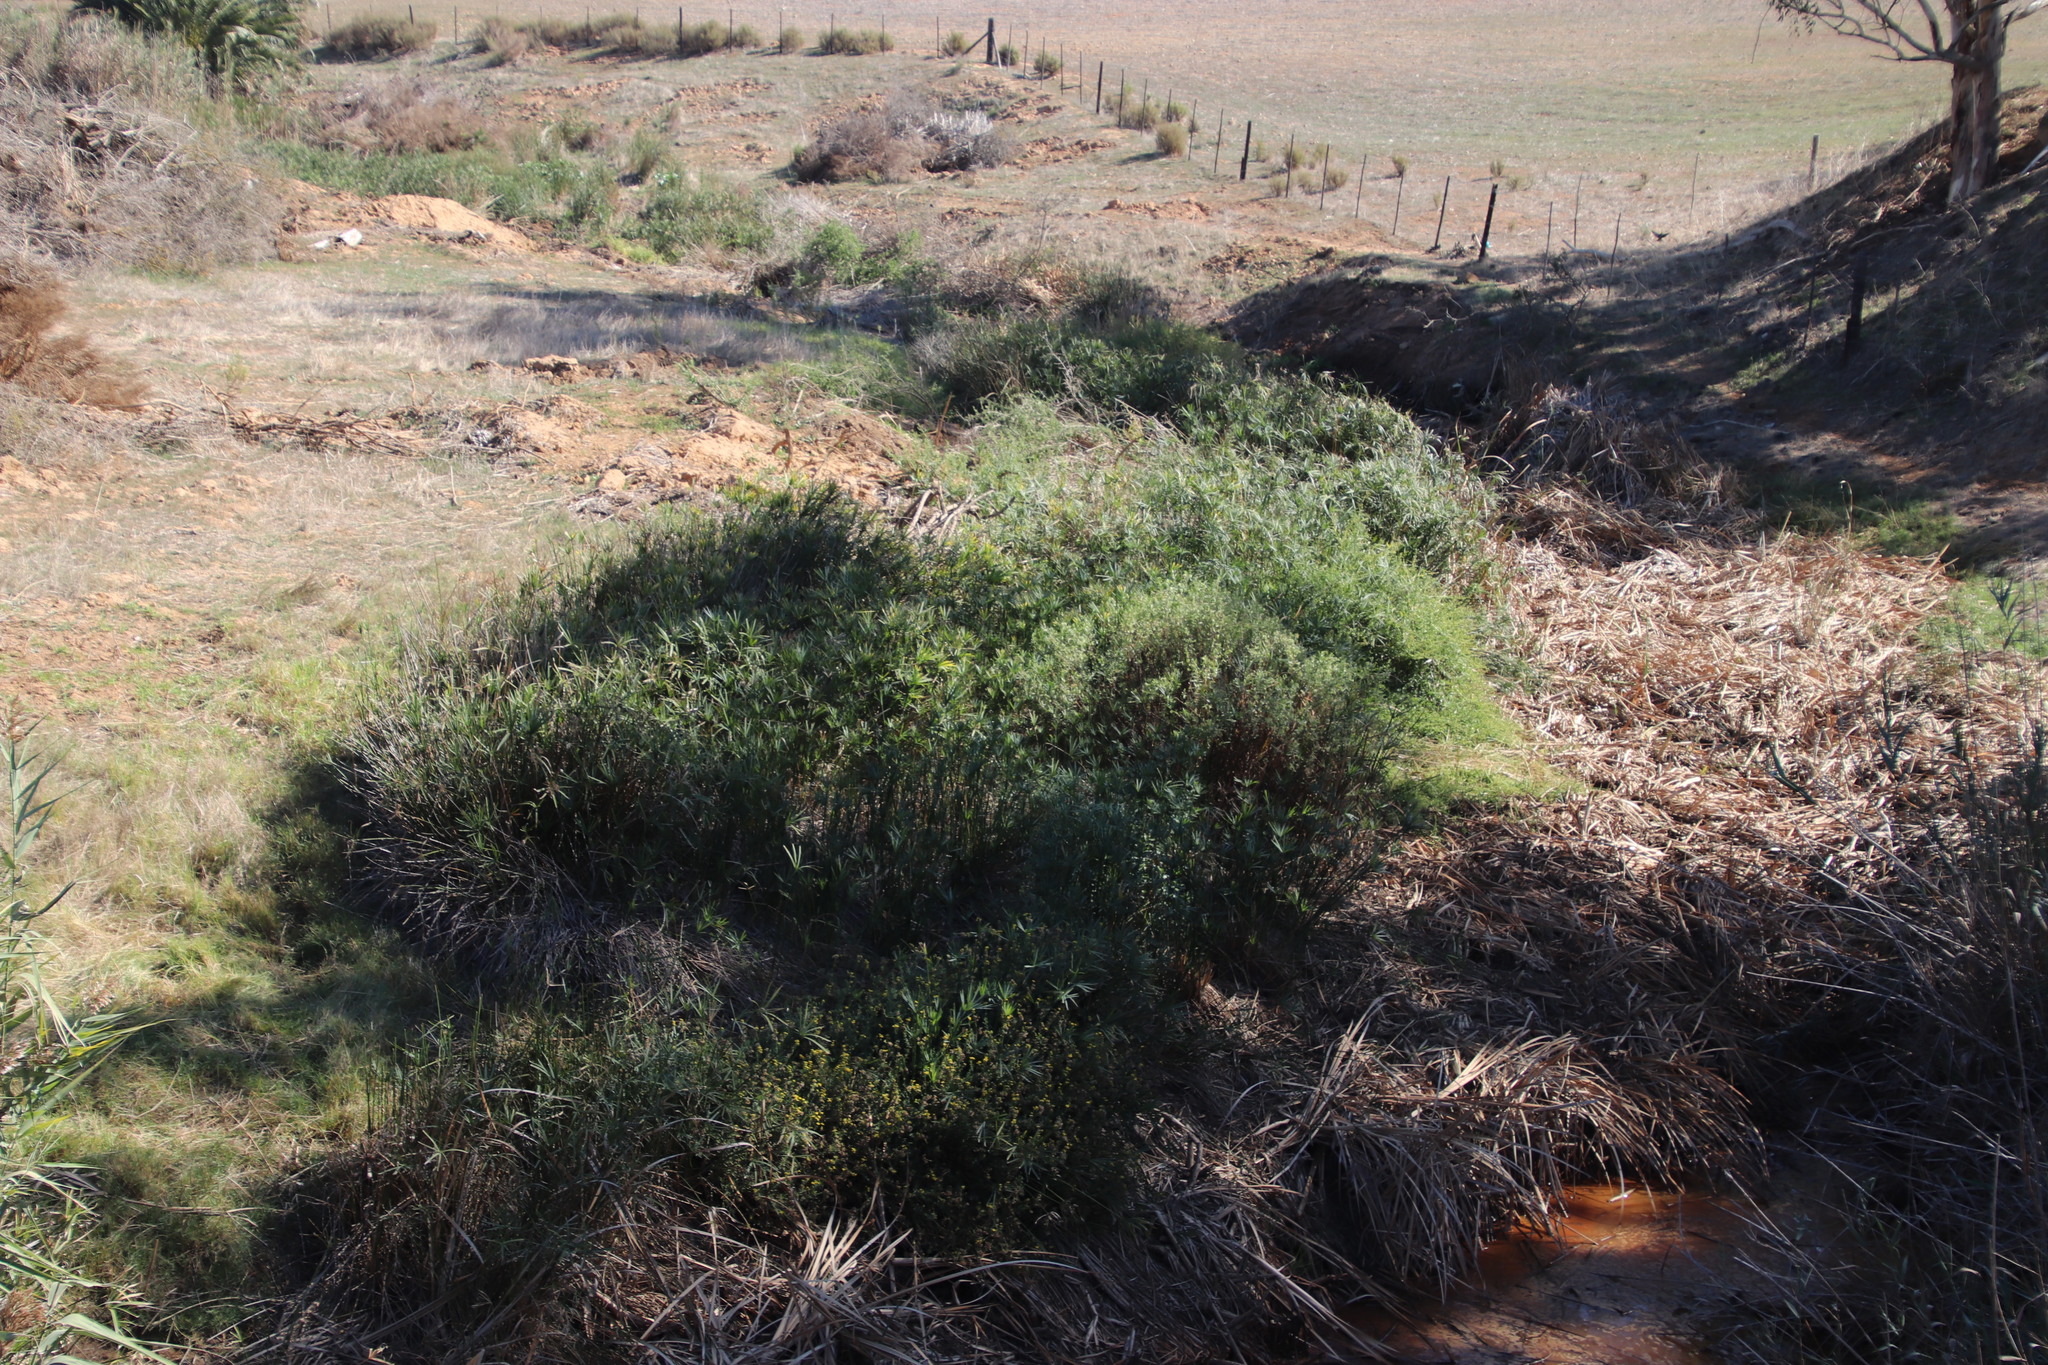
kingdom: Plantae
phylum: Tracheophyta
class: Liliopsida
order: Poales
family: Cyperaceae
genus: Cyperus
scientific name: Cyperus textilis
